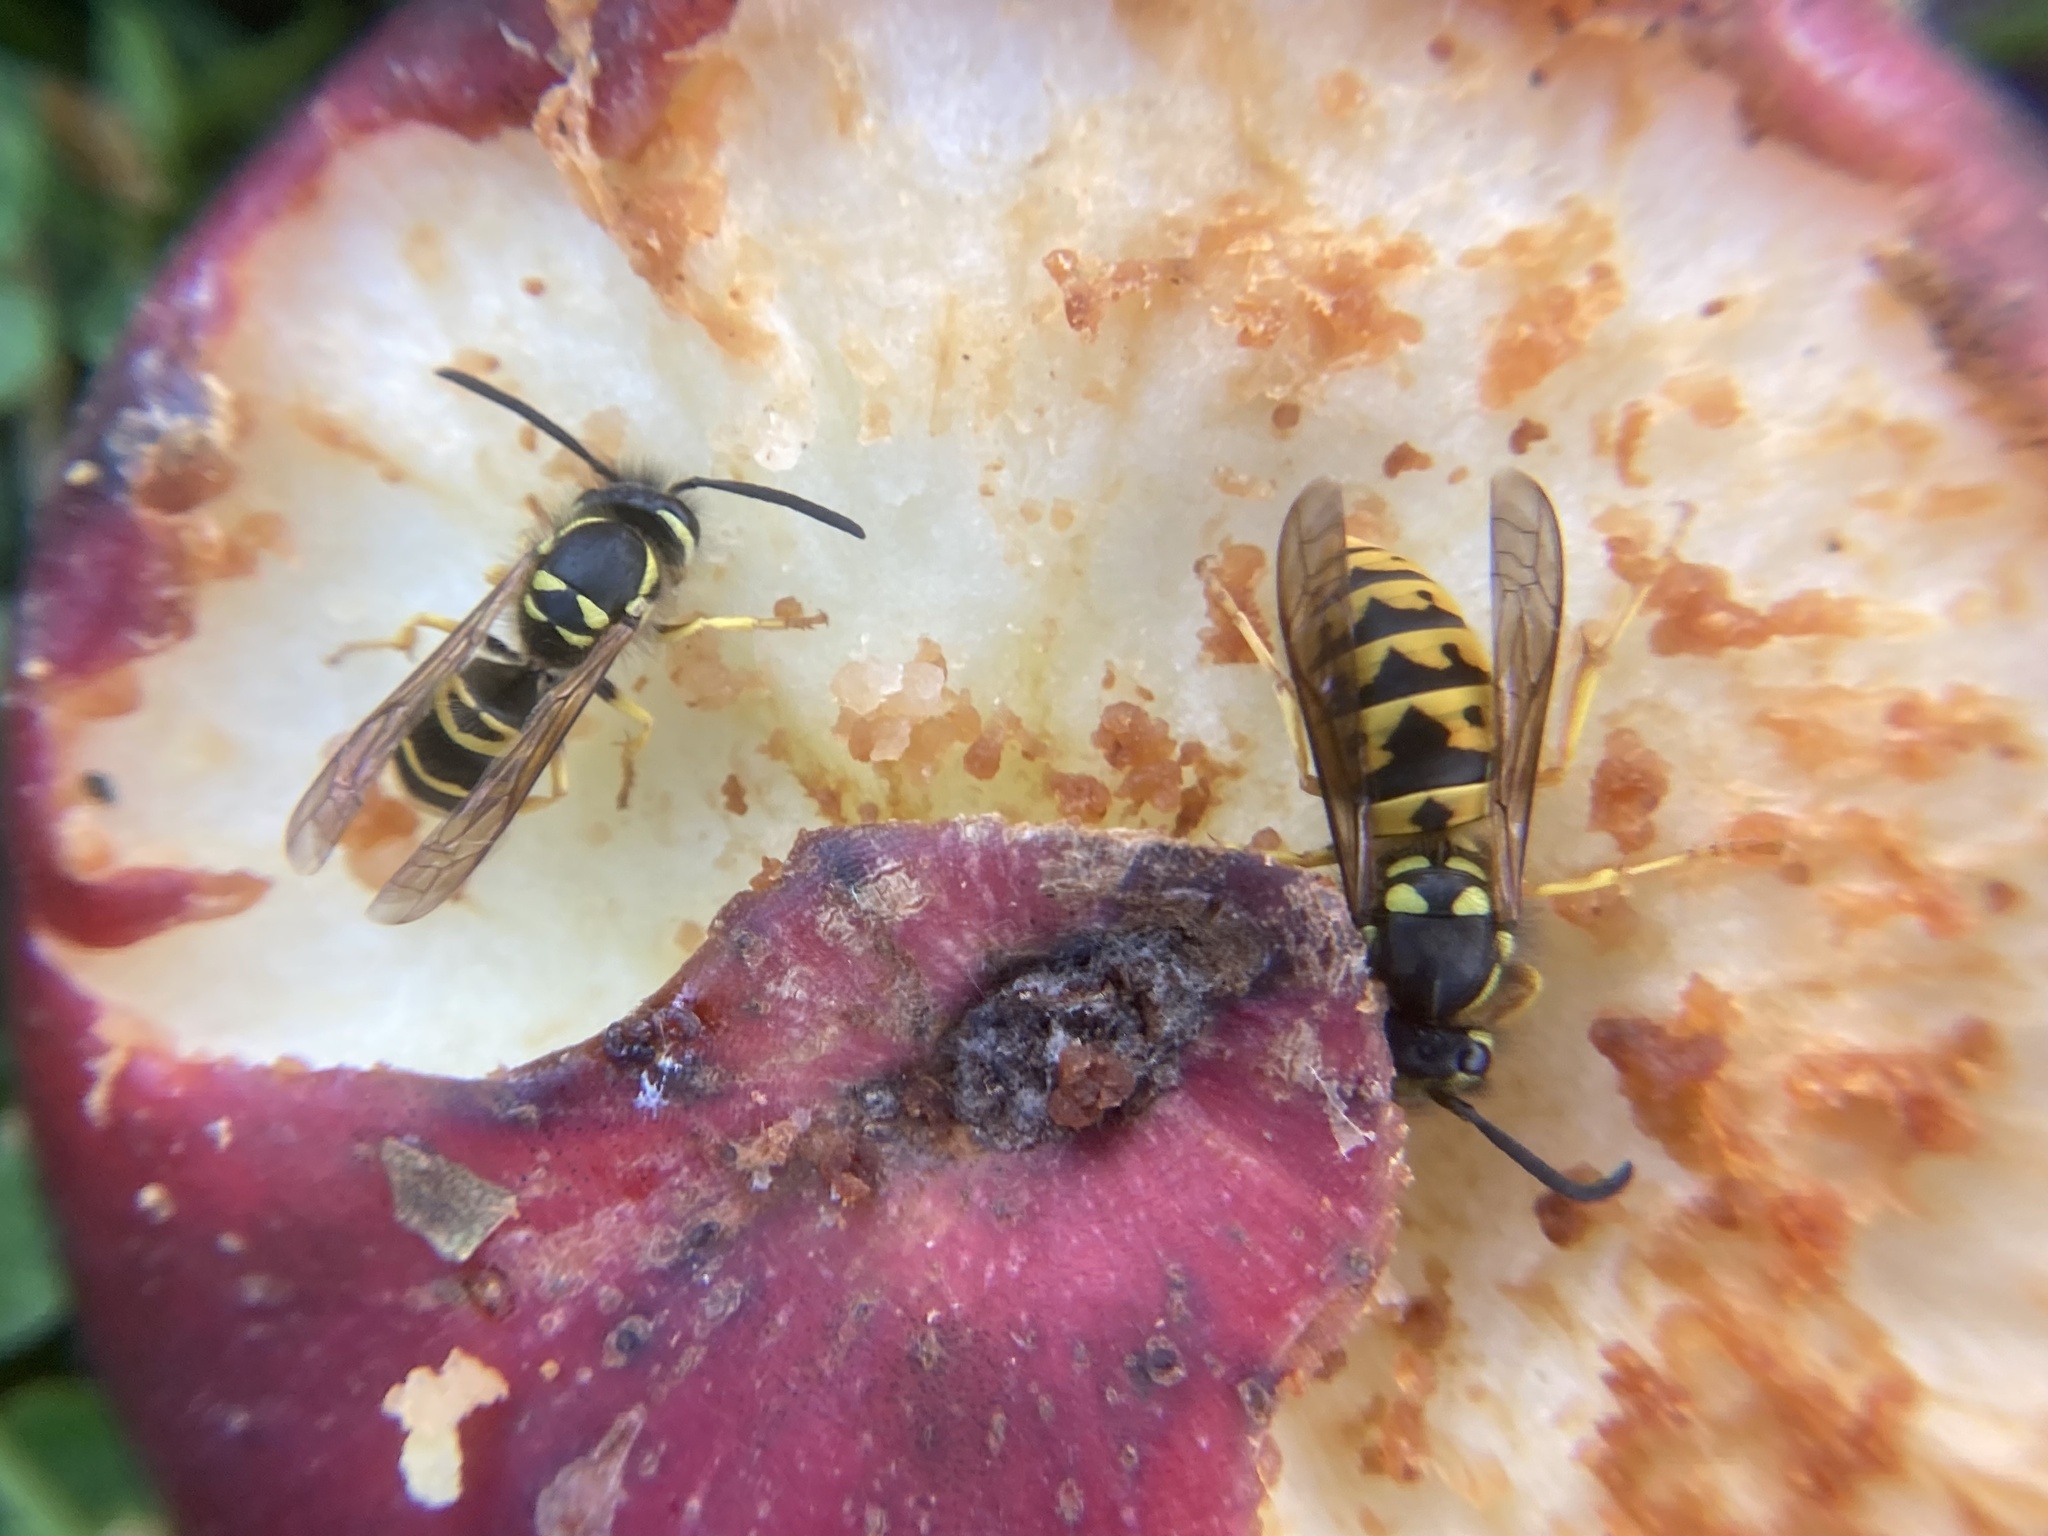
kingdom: Animalia
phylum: Arthropoda
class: Insecta
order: Hymenoptera
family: Vespidae
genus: Vespula
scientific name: Vespula maculifrons
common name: Eastern yellowjacket
